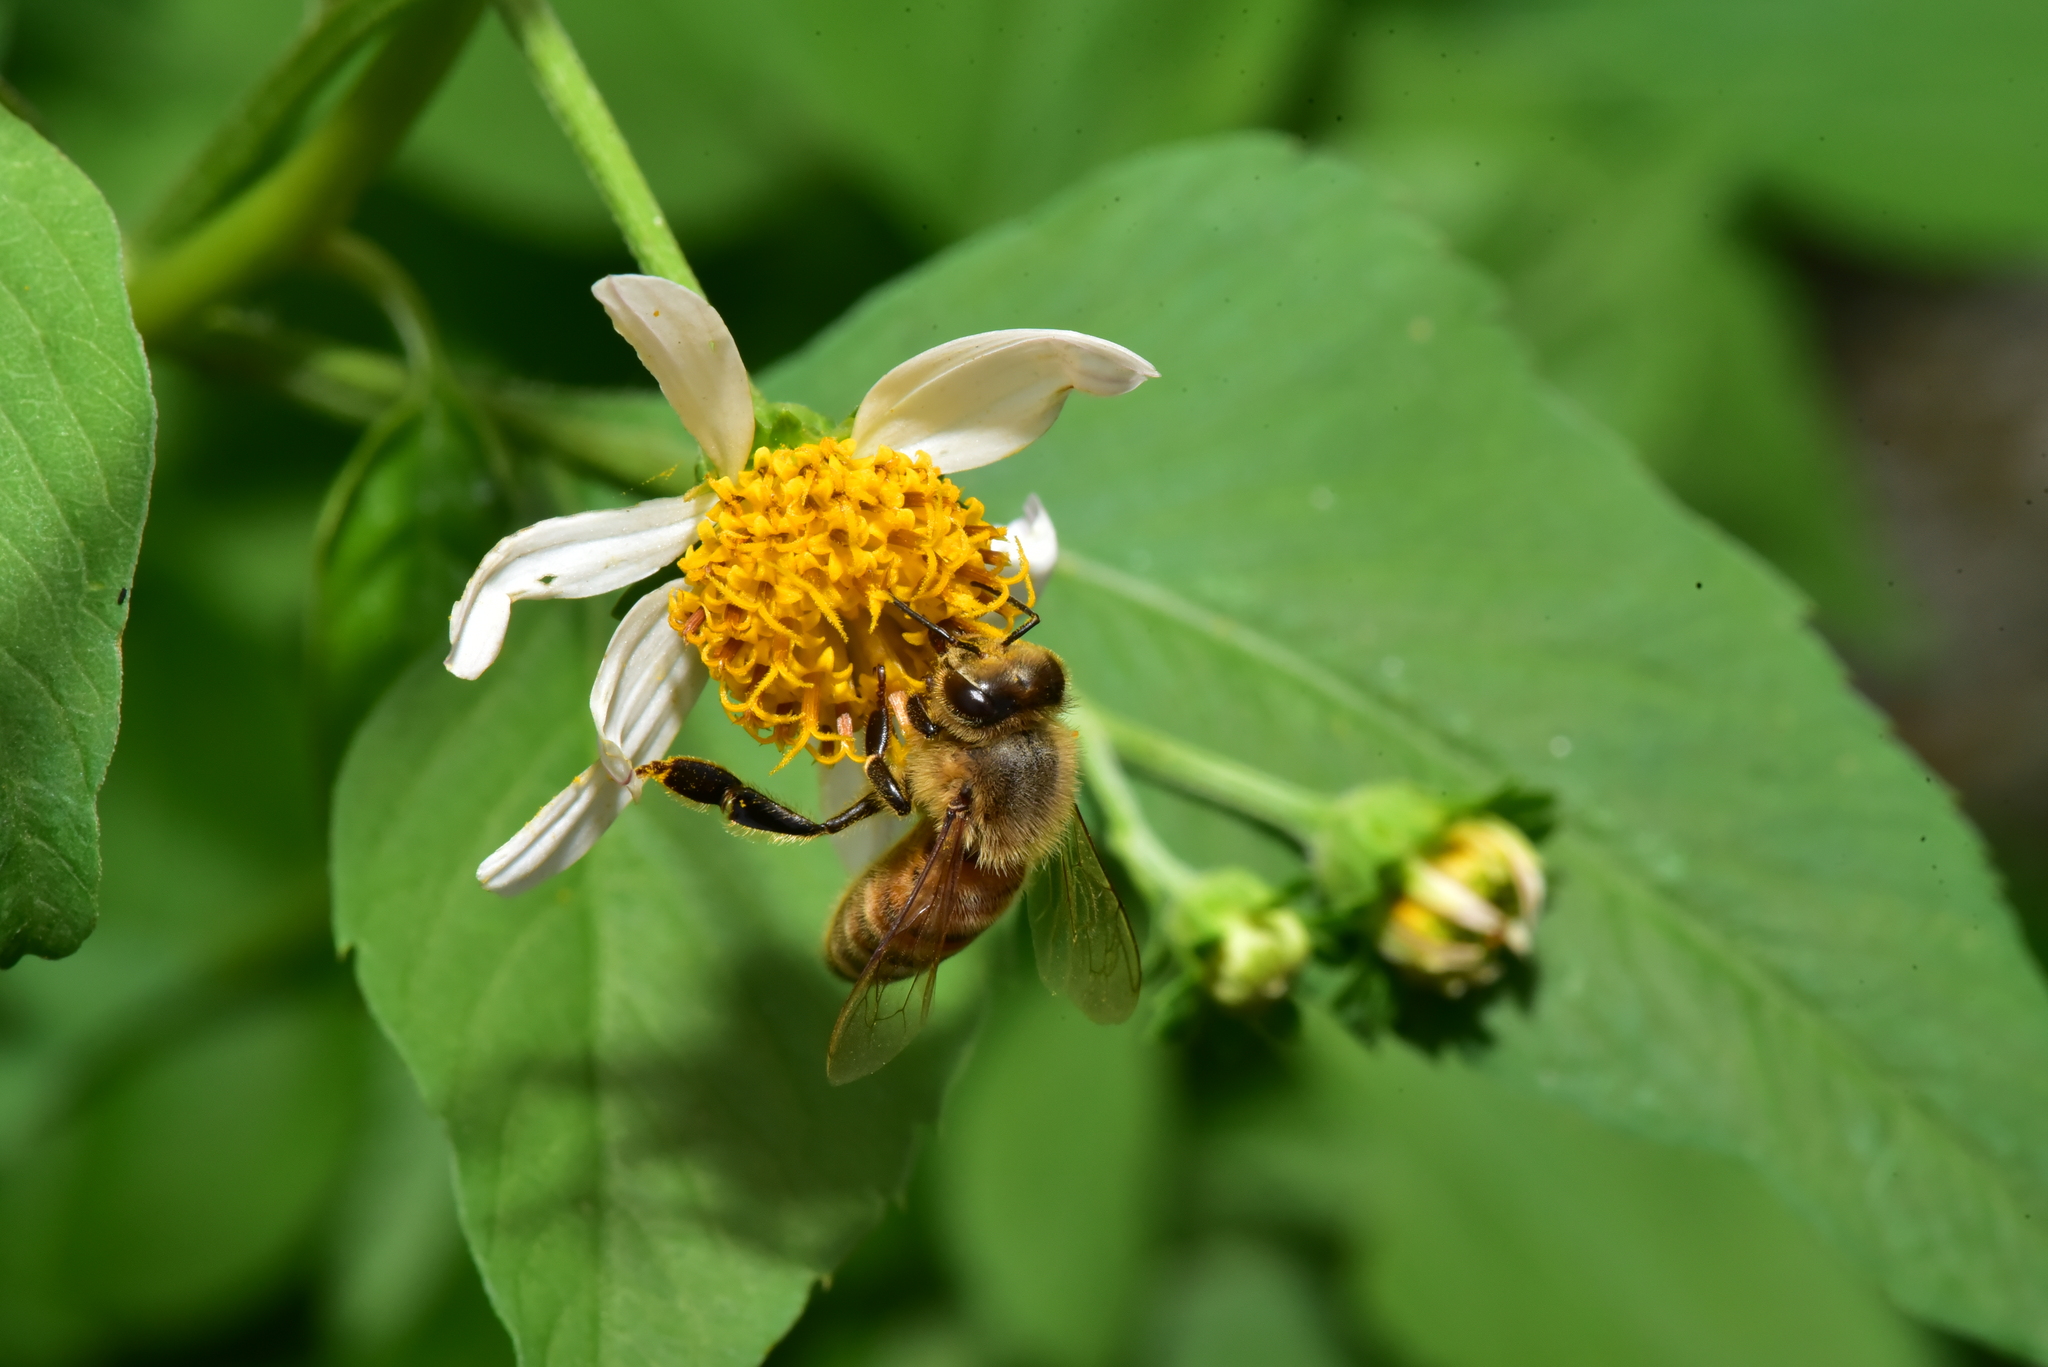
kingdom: Animalia
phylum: Arthropoda
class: Insecta
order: Hymenoptera
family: Apidae
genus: Apis
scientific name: Apis mellifera
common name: Honey bee
